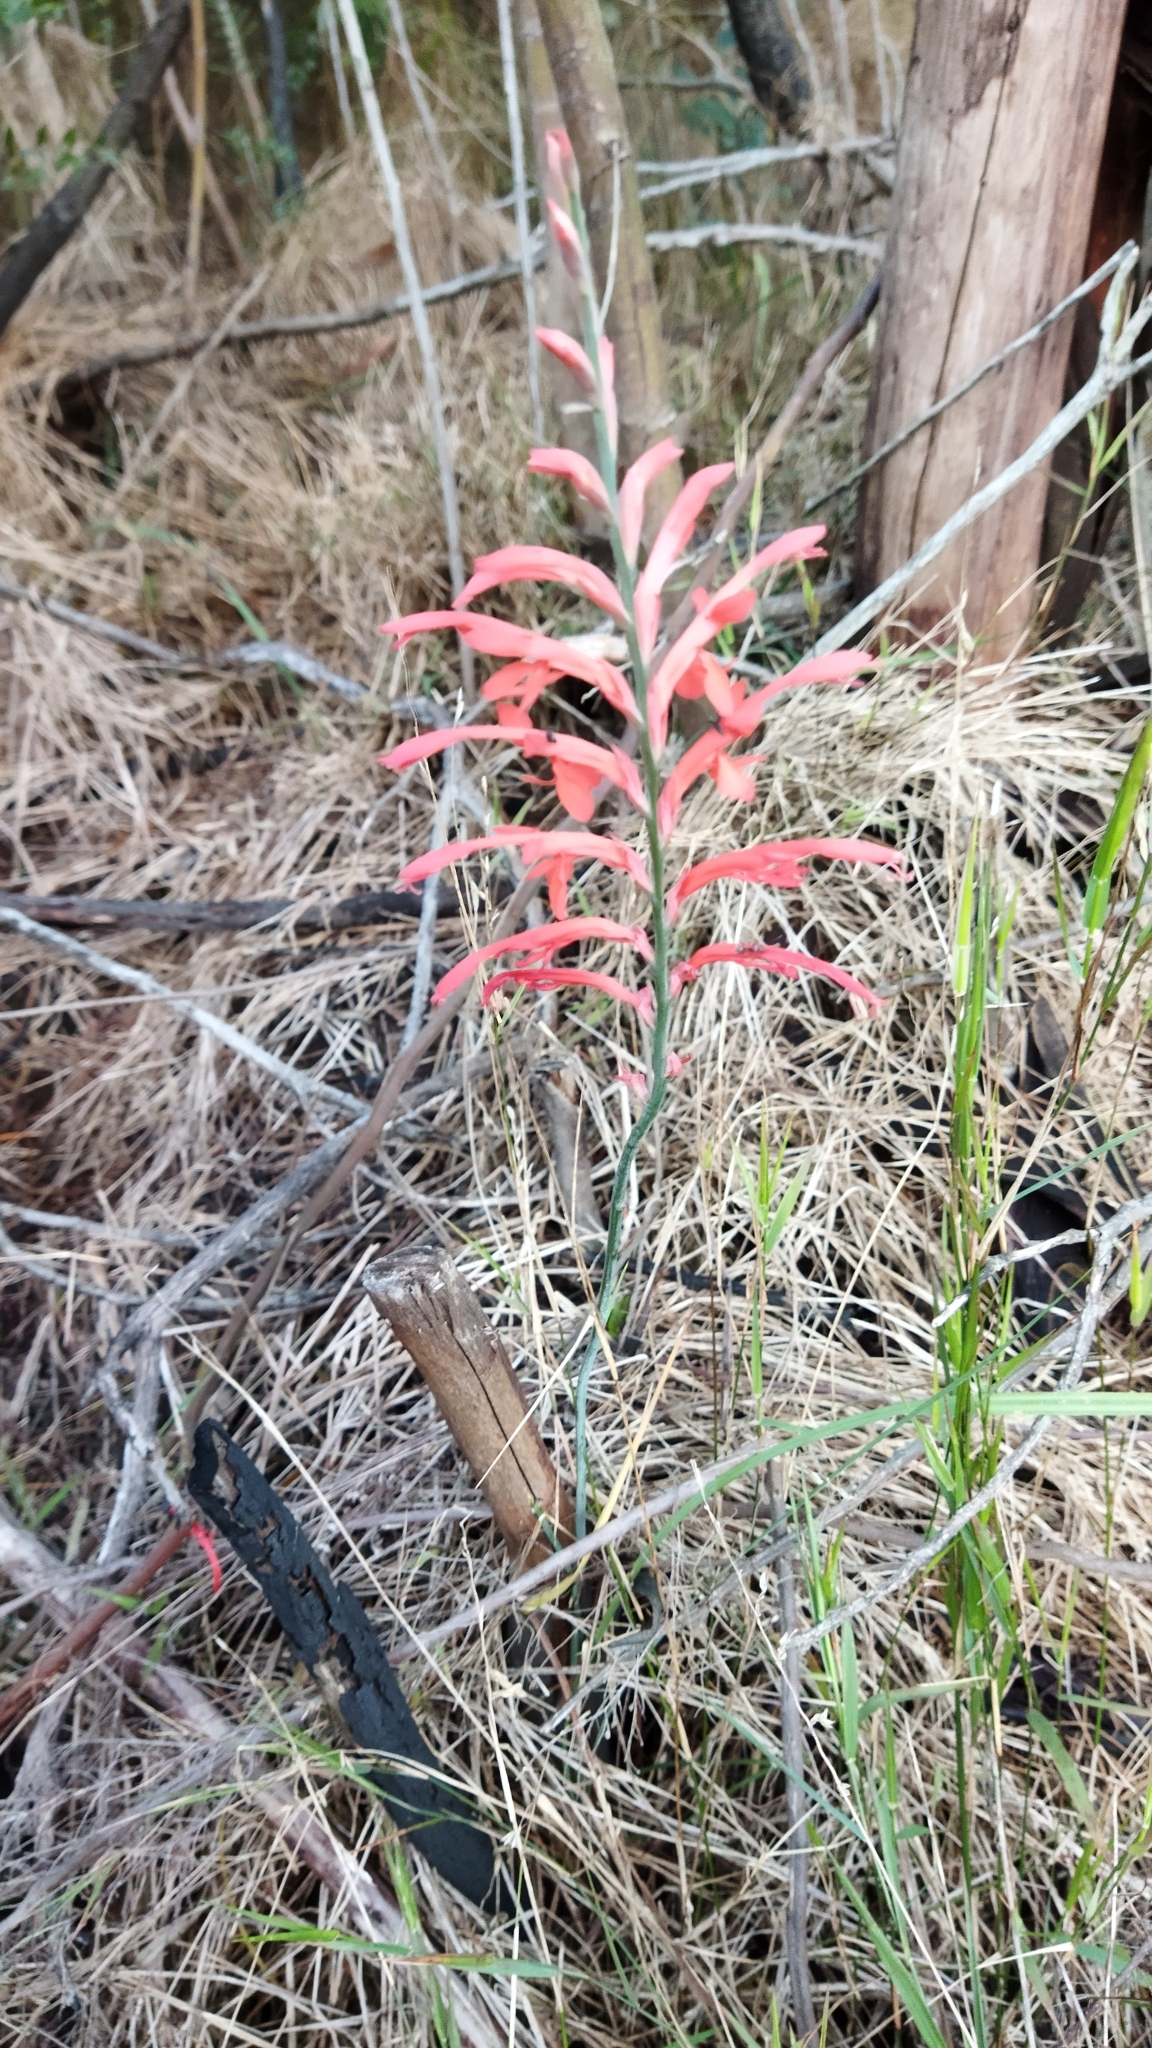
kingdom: Plantae
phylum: Tracheophyta
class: Liliopsida
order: Asparagales
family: Iridaceae
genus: Tritoniopsis
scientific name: Tritoniopsis caffra
